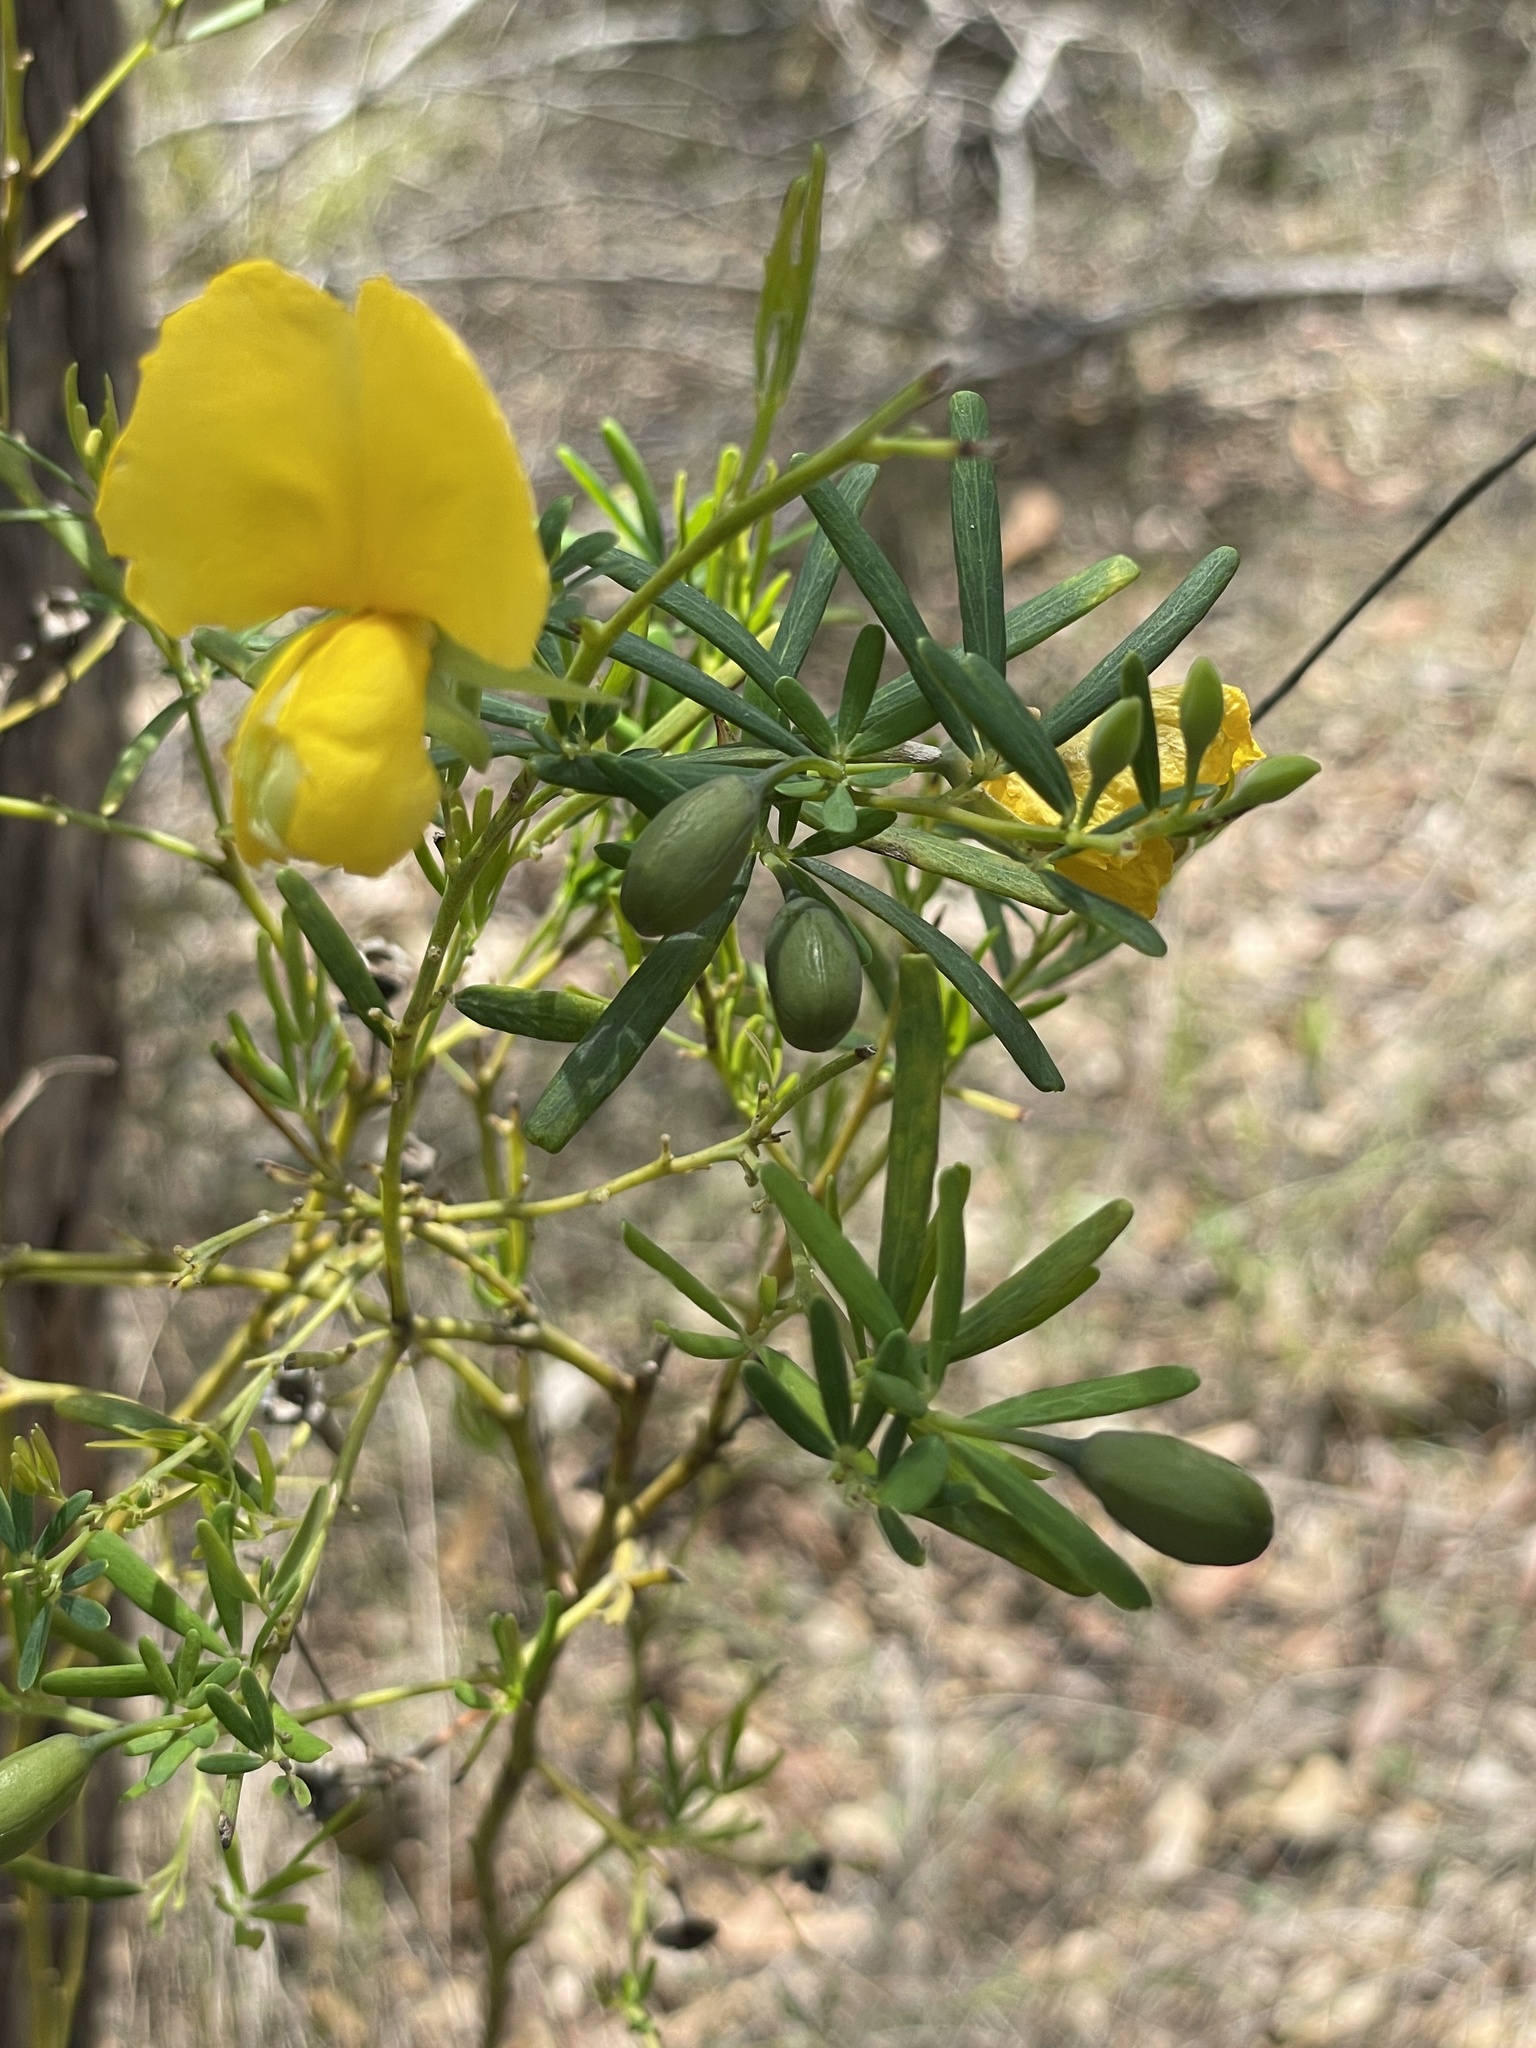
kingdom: Plantae
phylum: Tracheophyta
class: Magnoliopsida
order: Fabales
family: Fabaceae
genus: Gompholobium
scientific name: Gompholobium latifolium
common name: Broadleaf wedge-pea
